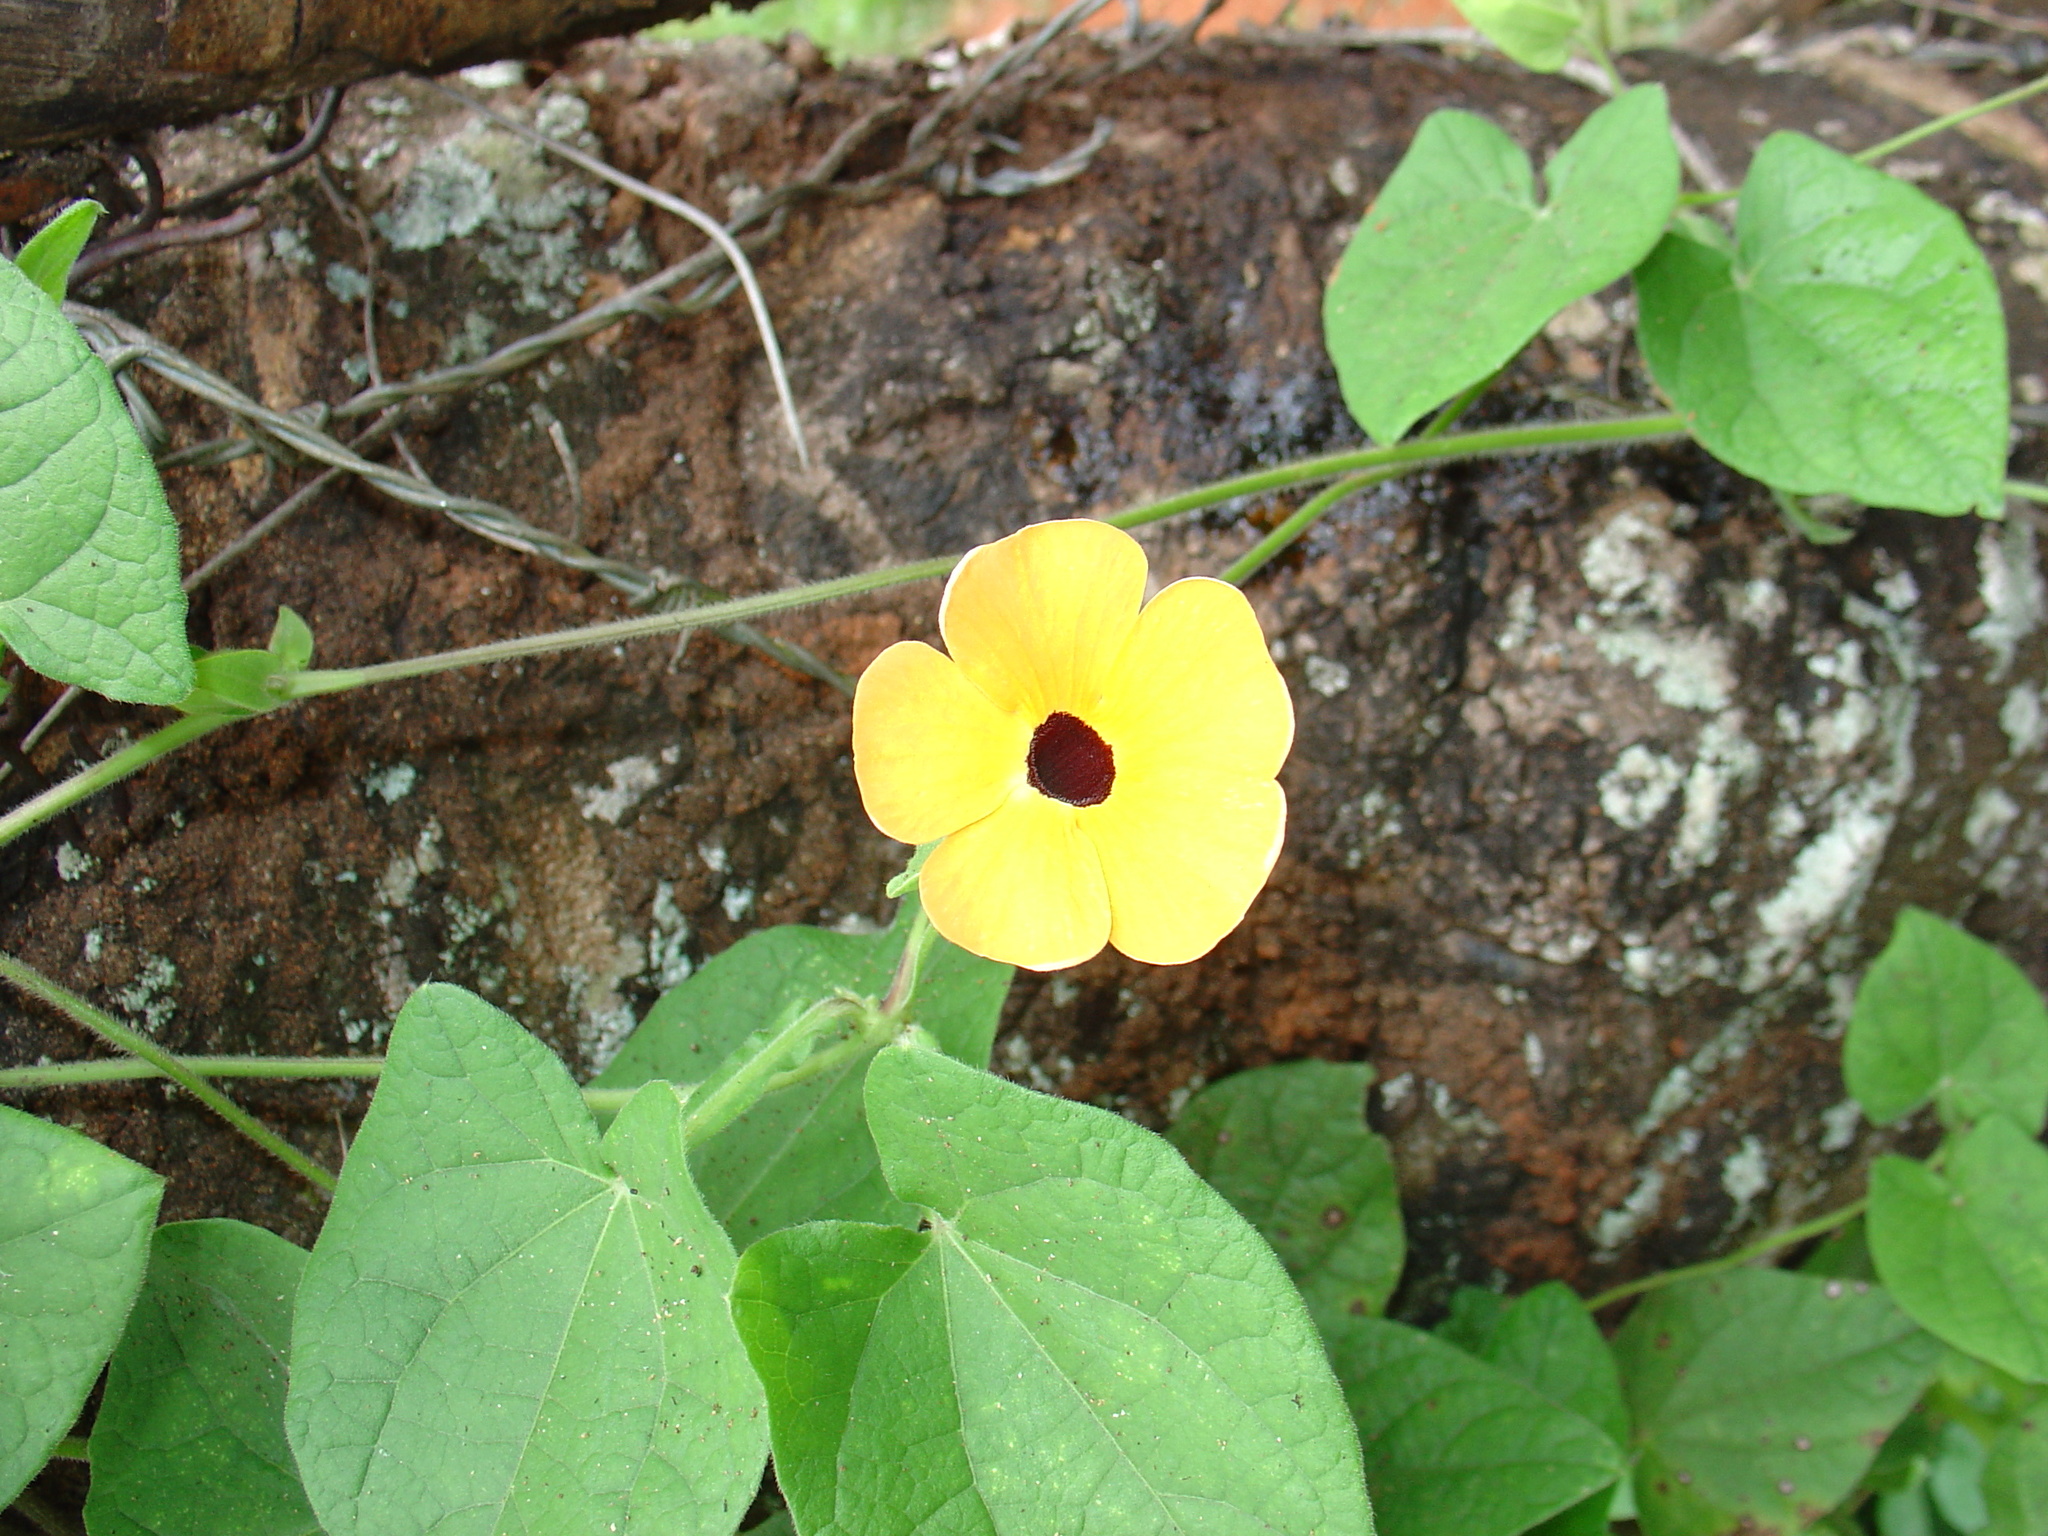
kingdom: Plantae
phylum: Tracheophyta
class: Magnoliopsida
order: Lamiales
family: Acanthaceae
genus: Thunbergia
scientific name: Thunbergia alata
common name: Blackeyed susan vine
